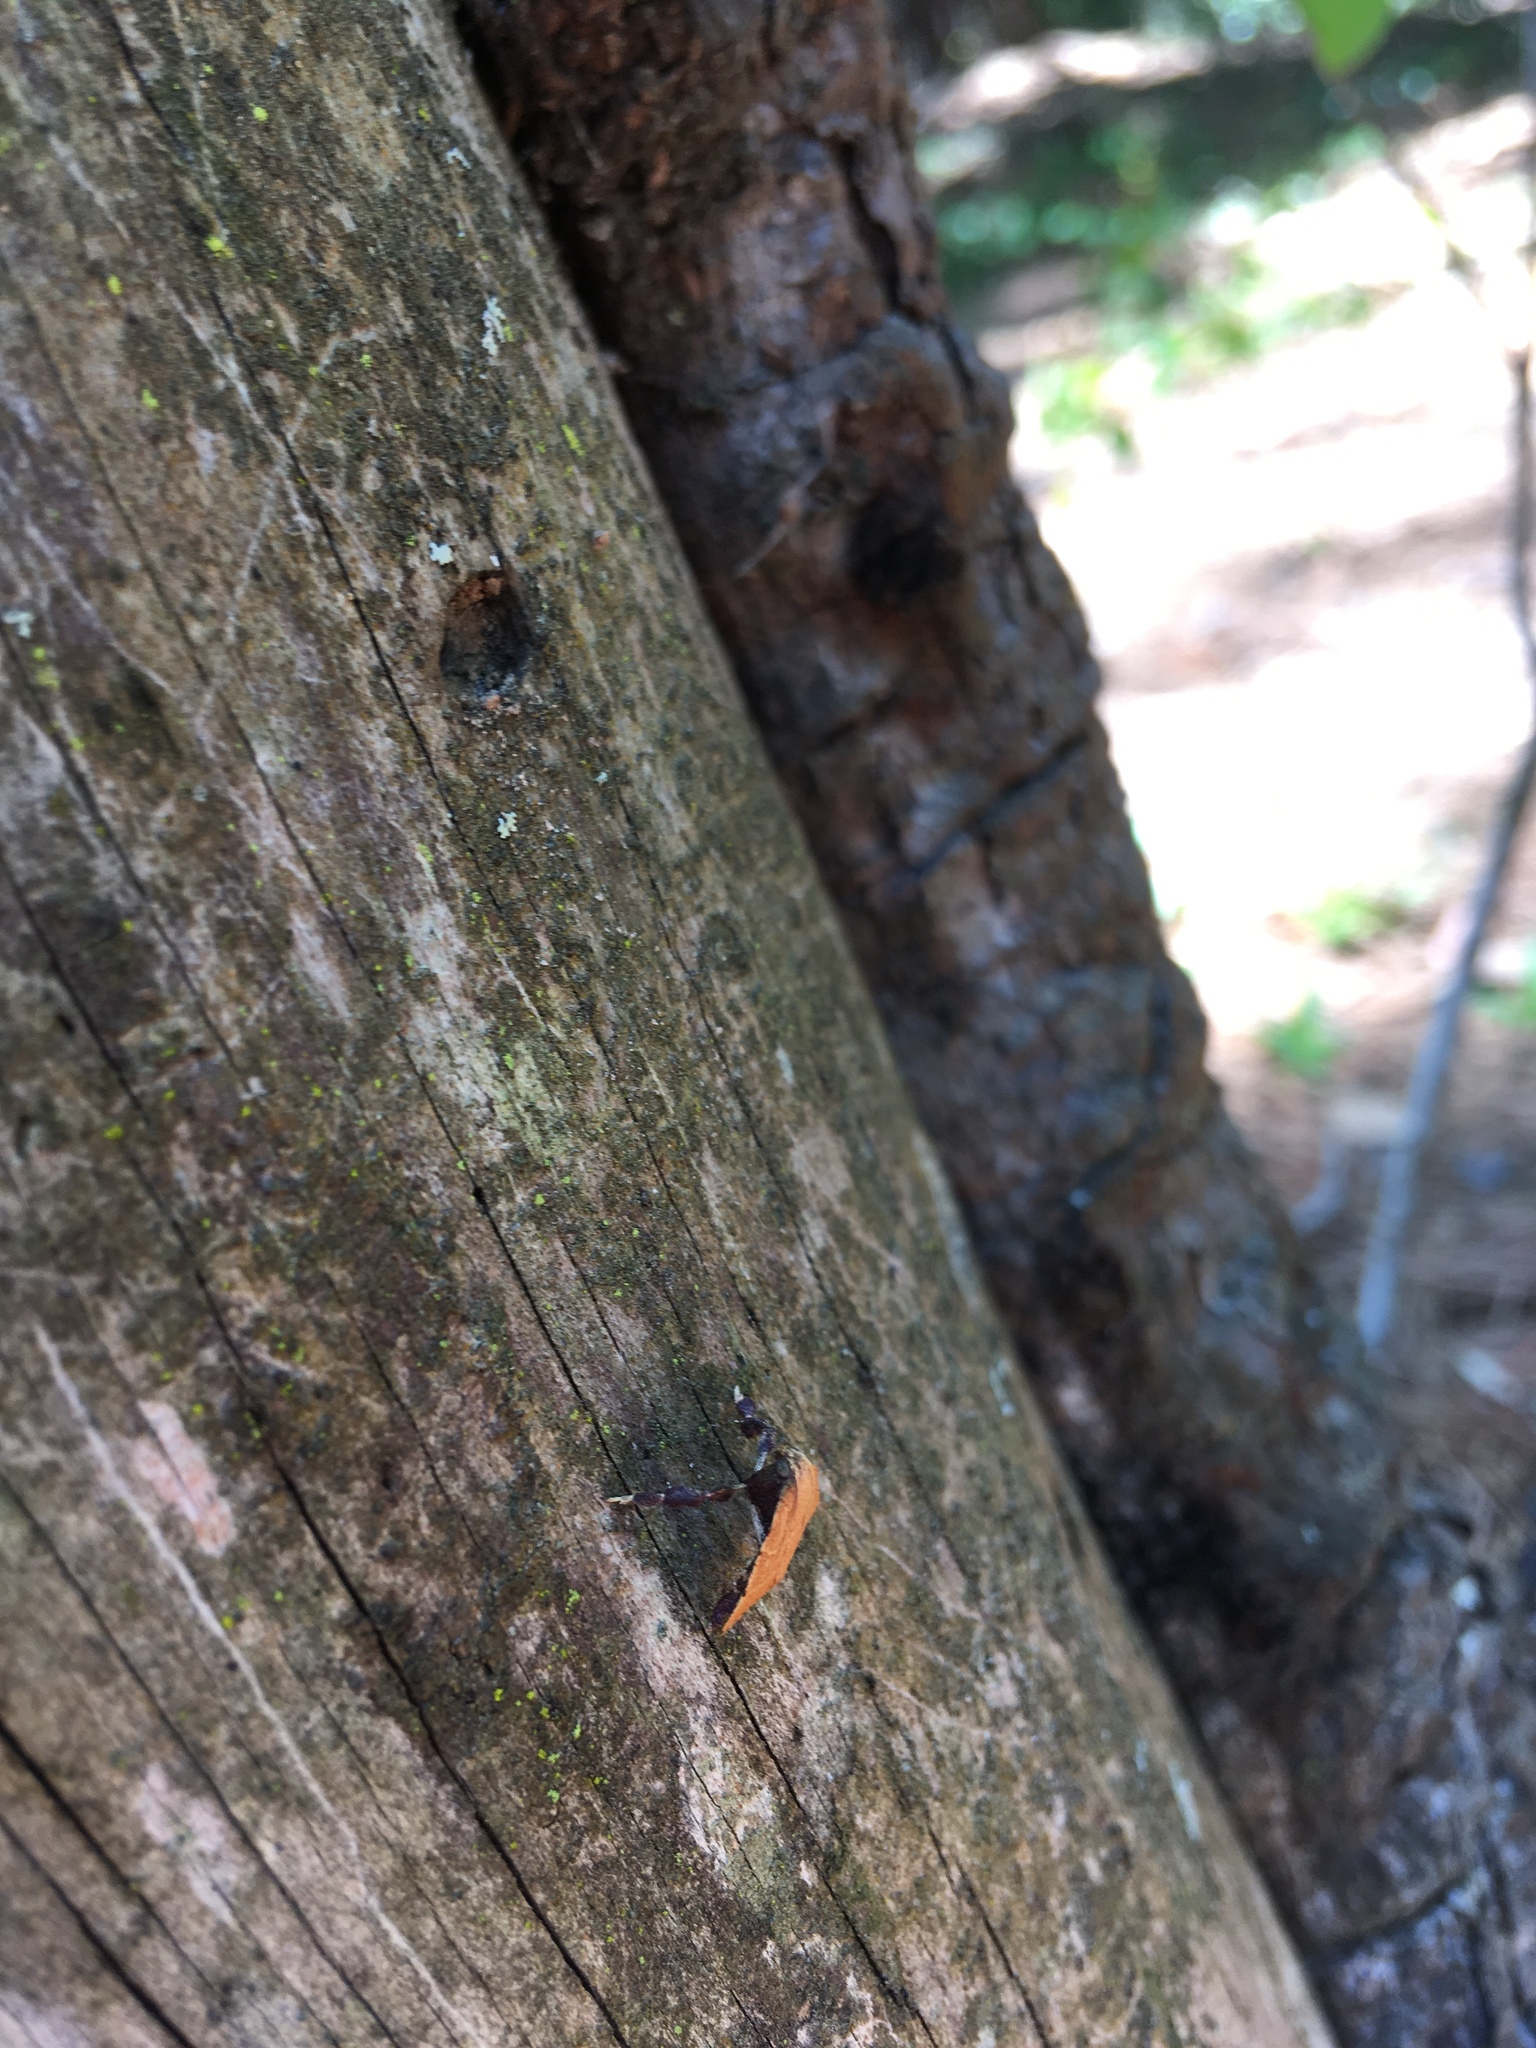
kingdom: Animalia
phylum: Arthropoda
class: Insecta
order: Lepidoptera
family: Pyralidae
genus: Parachma
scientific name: Parachma ochracealis
